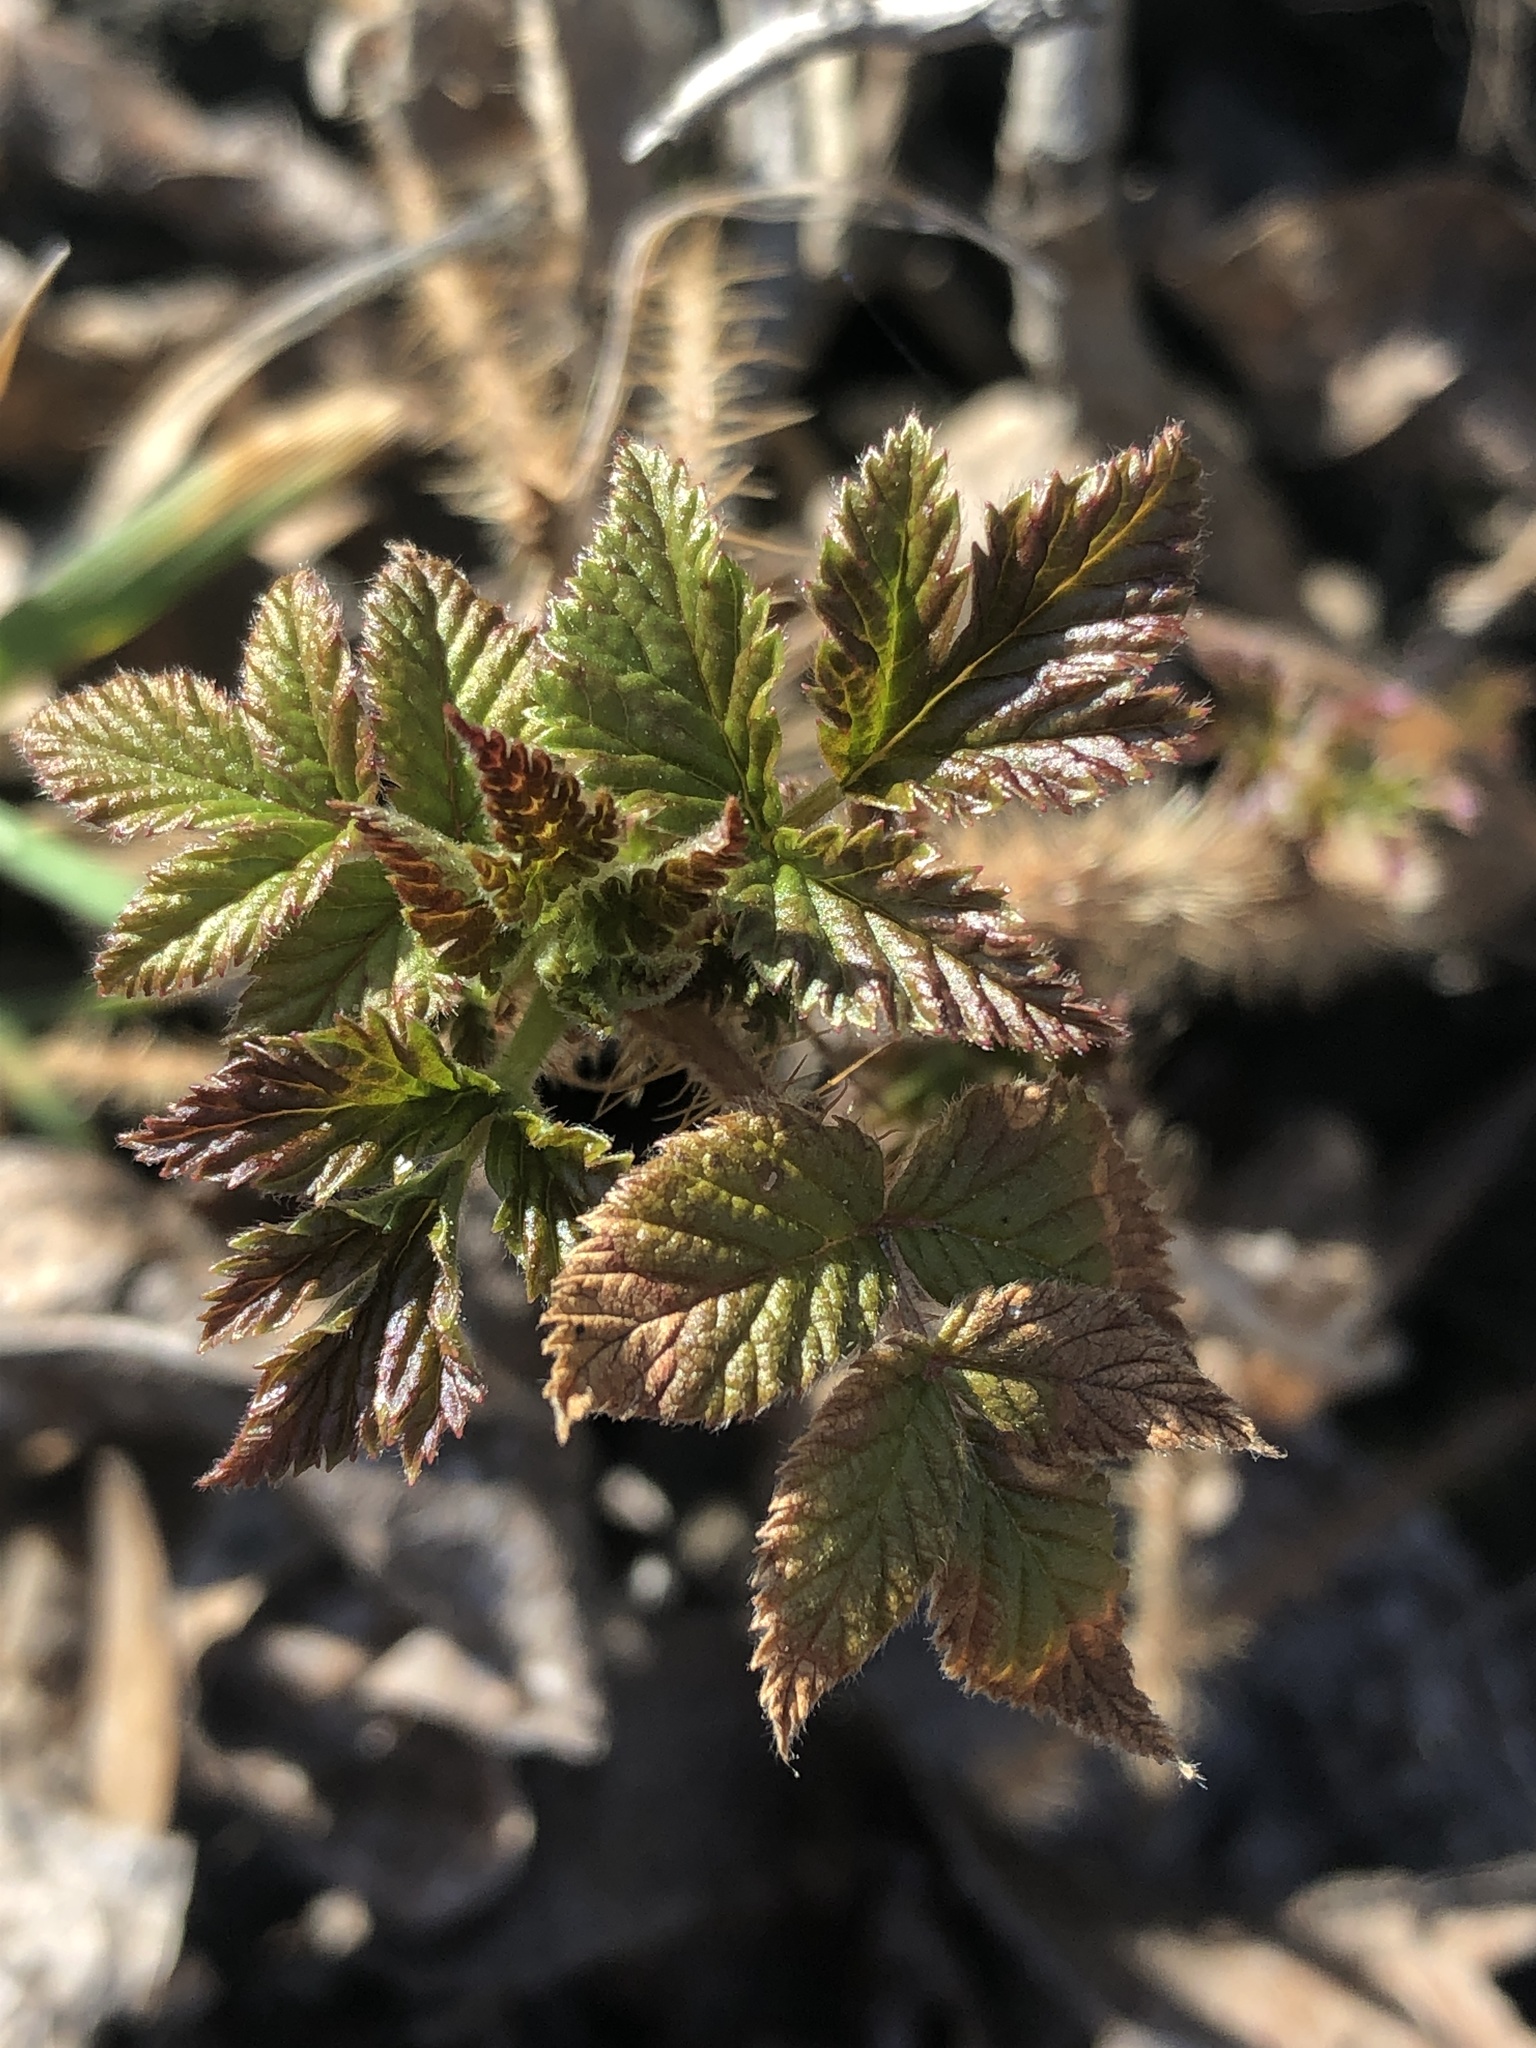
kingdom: Plantae
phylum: Tracheophyta
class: Magnoliopsida
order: Rosales
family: Rosaceae
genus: Rubus
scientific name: Rubus idaeus
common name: Raspberry
